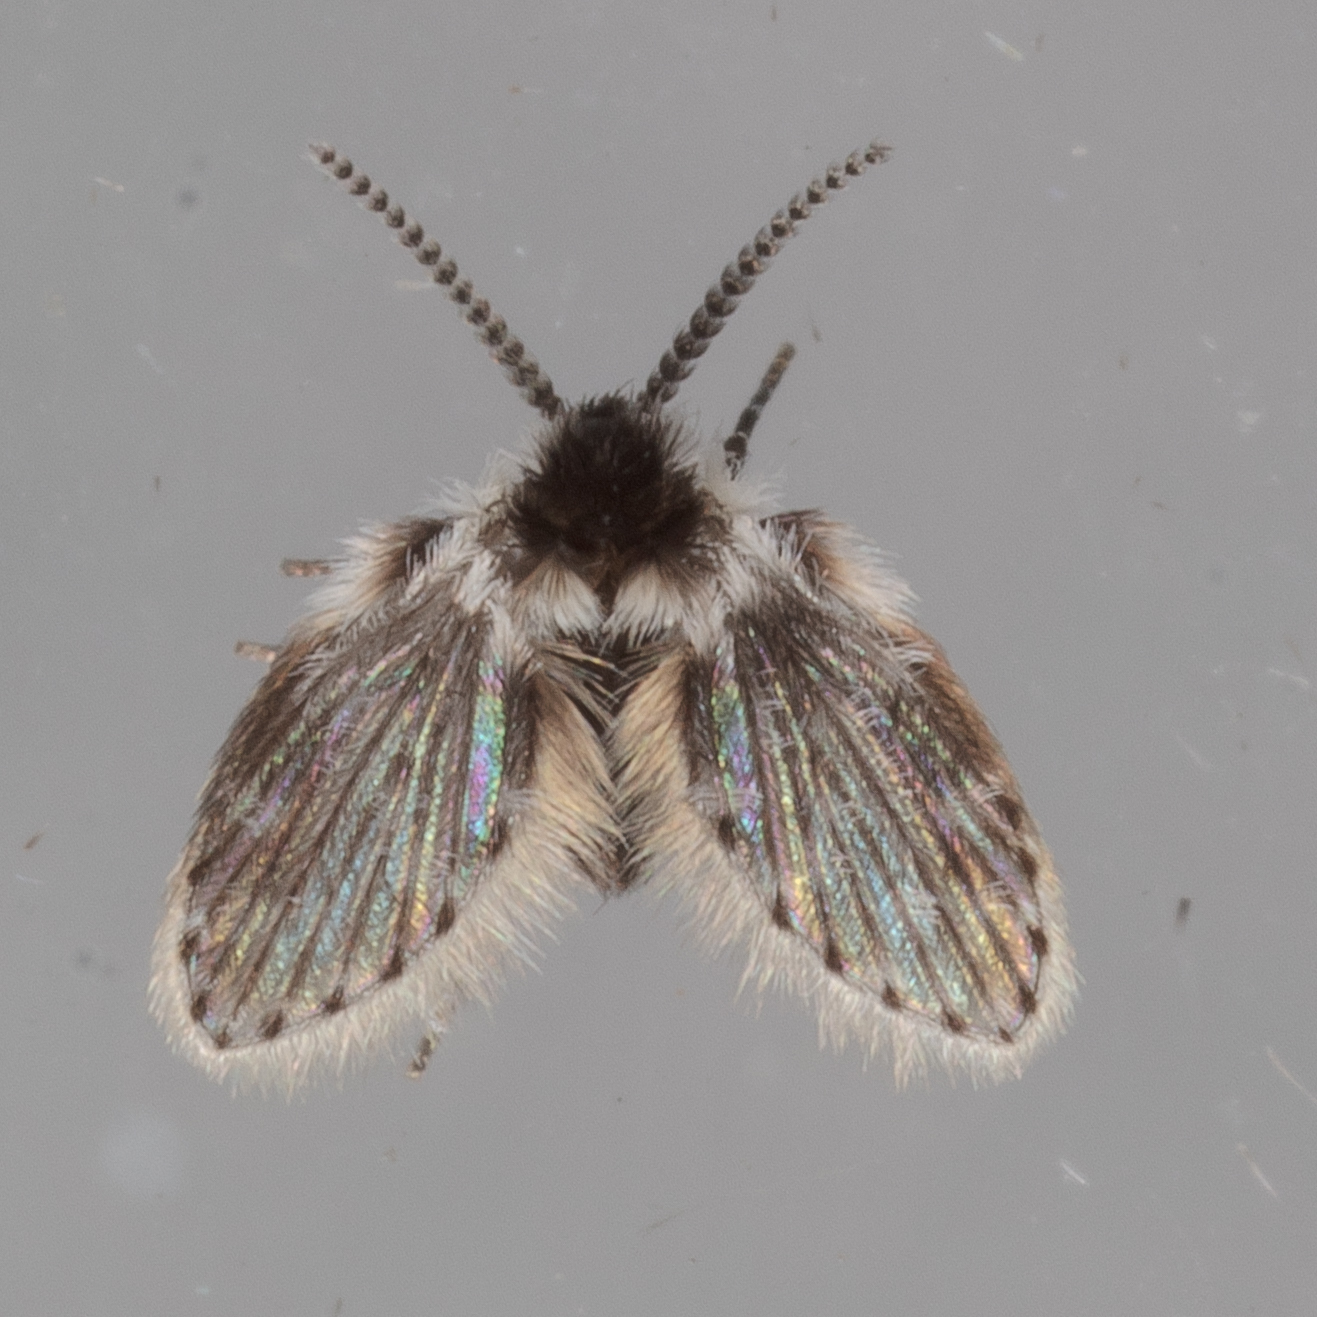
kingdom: Animalia
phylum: Arthropoda
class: Insecta
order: Diptera
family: Psychodidae
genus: Lepiseodina
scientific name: Lepiseodina
